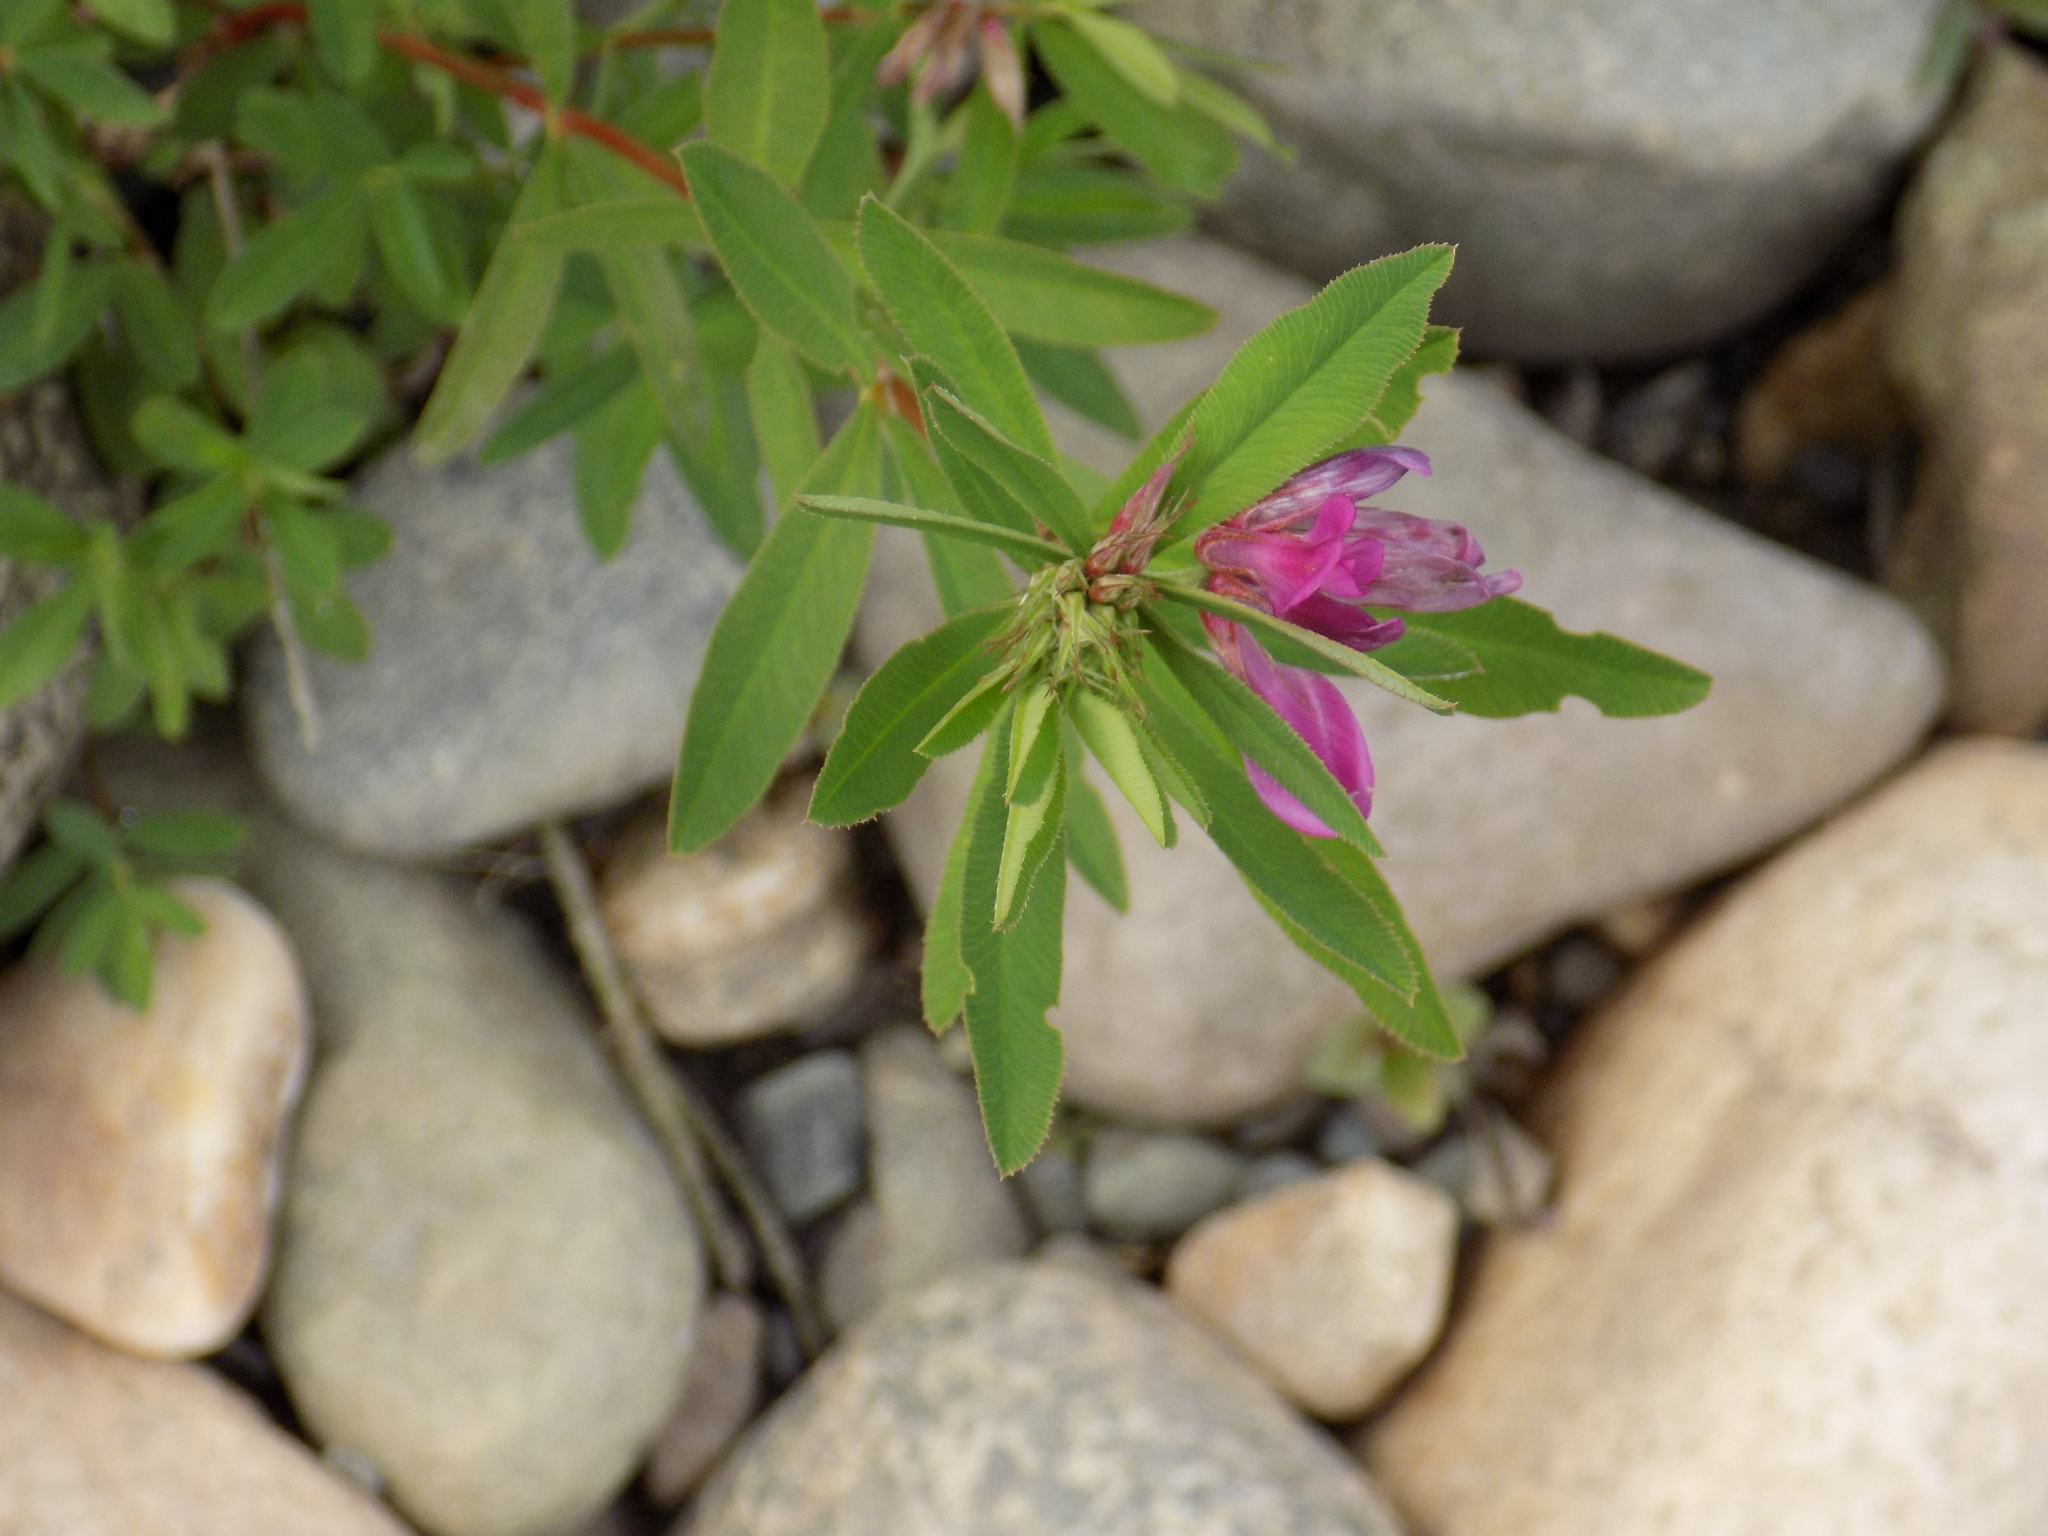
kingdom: Plantae
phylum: Tracheophyta
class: Magnoliopsida
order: Fabales
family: Fabaceae
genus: Trifolium
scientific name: Trifolium lupinaster
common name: Lupine clover
